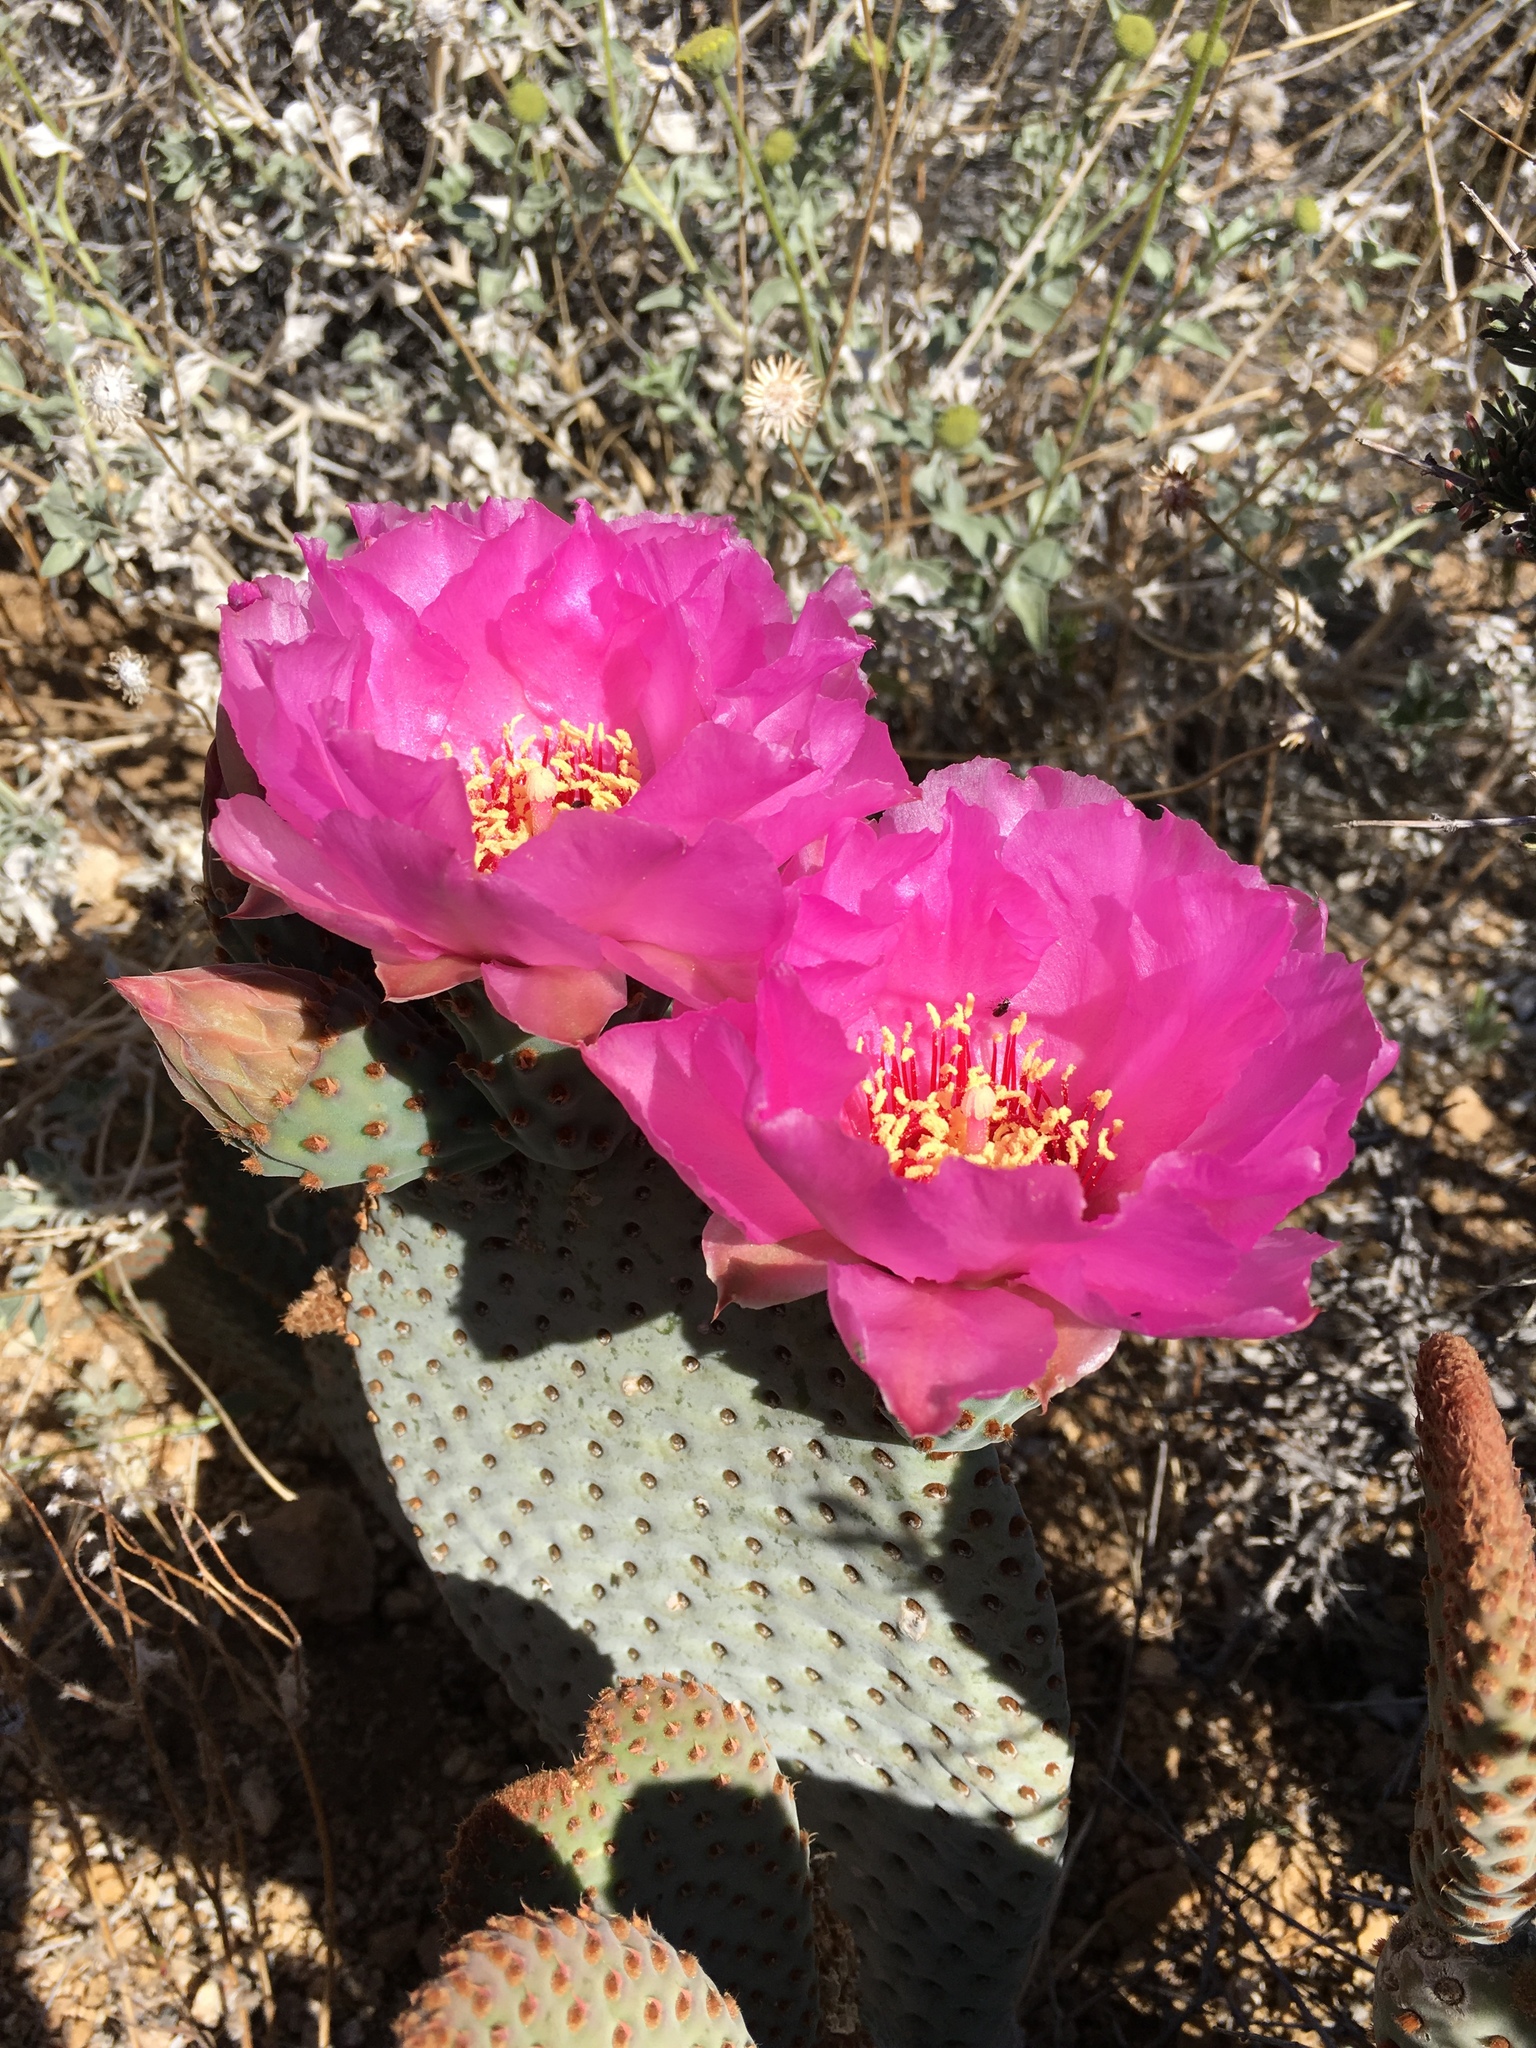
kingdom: Plantae
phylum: Tracheophyta
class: Magnoliopsida
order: Caryophyllales
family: Cactaceae
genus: Opuntia
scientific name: Opuntia basilaris
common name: Beavertail prickly-pear
